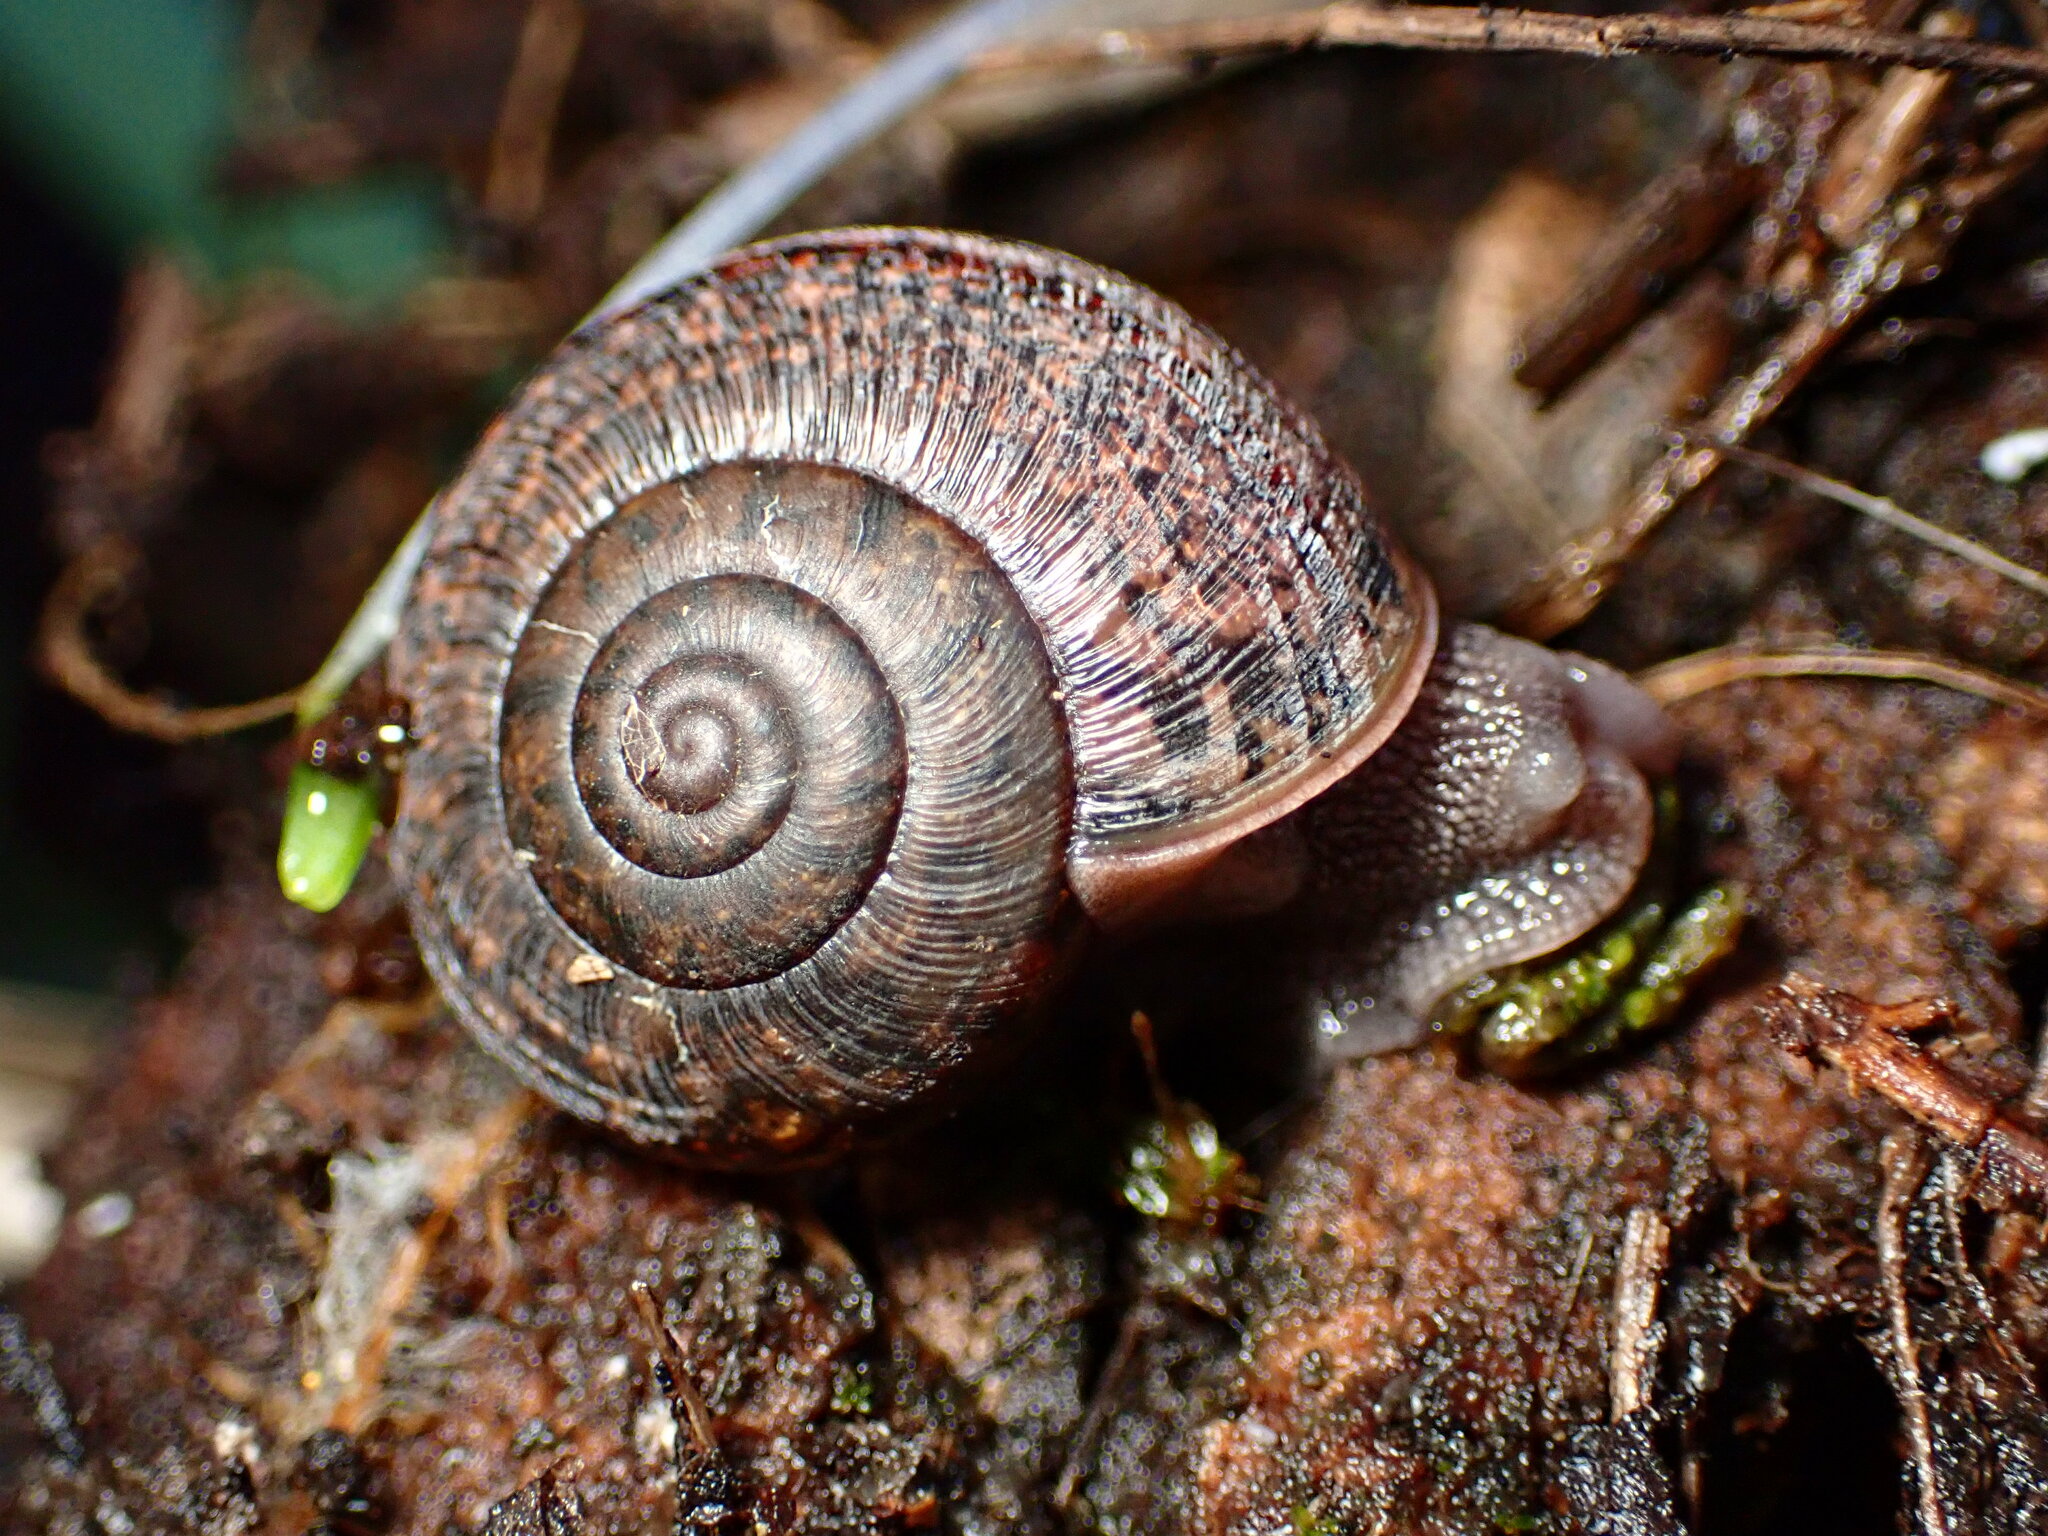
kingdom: Animalia
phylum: Mollusca
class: Gastropoda
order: Stylommatophora
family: Xanthonychidae
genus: Helminthoglypta
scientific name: Helminthoglypta cypreophila
